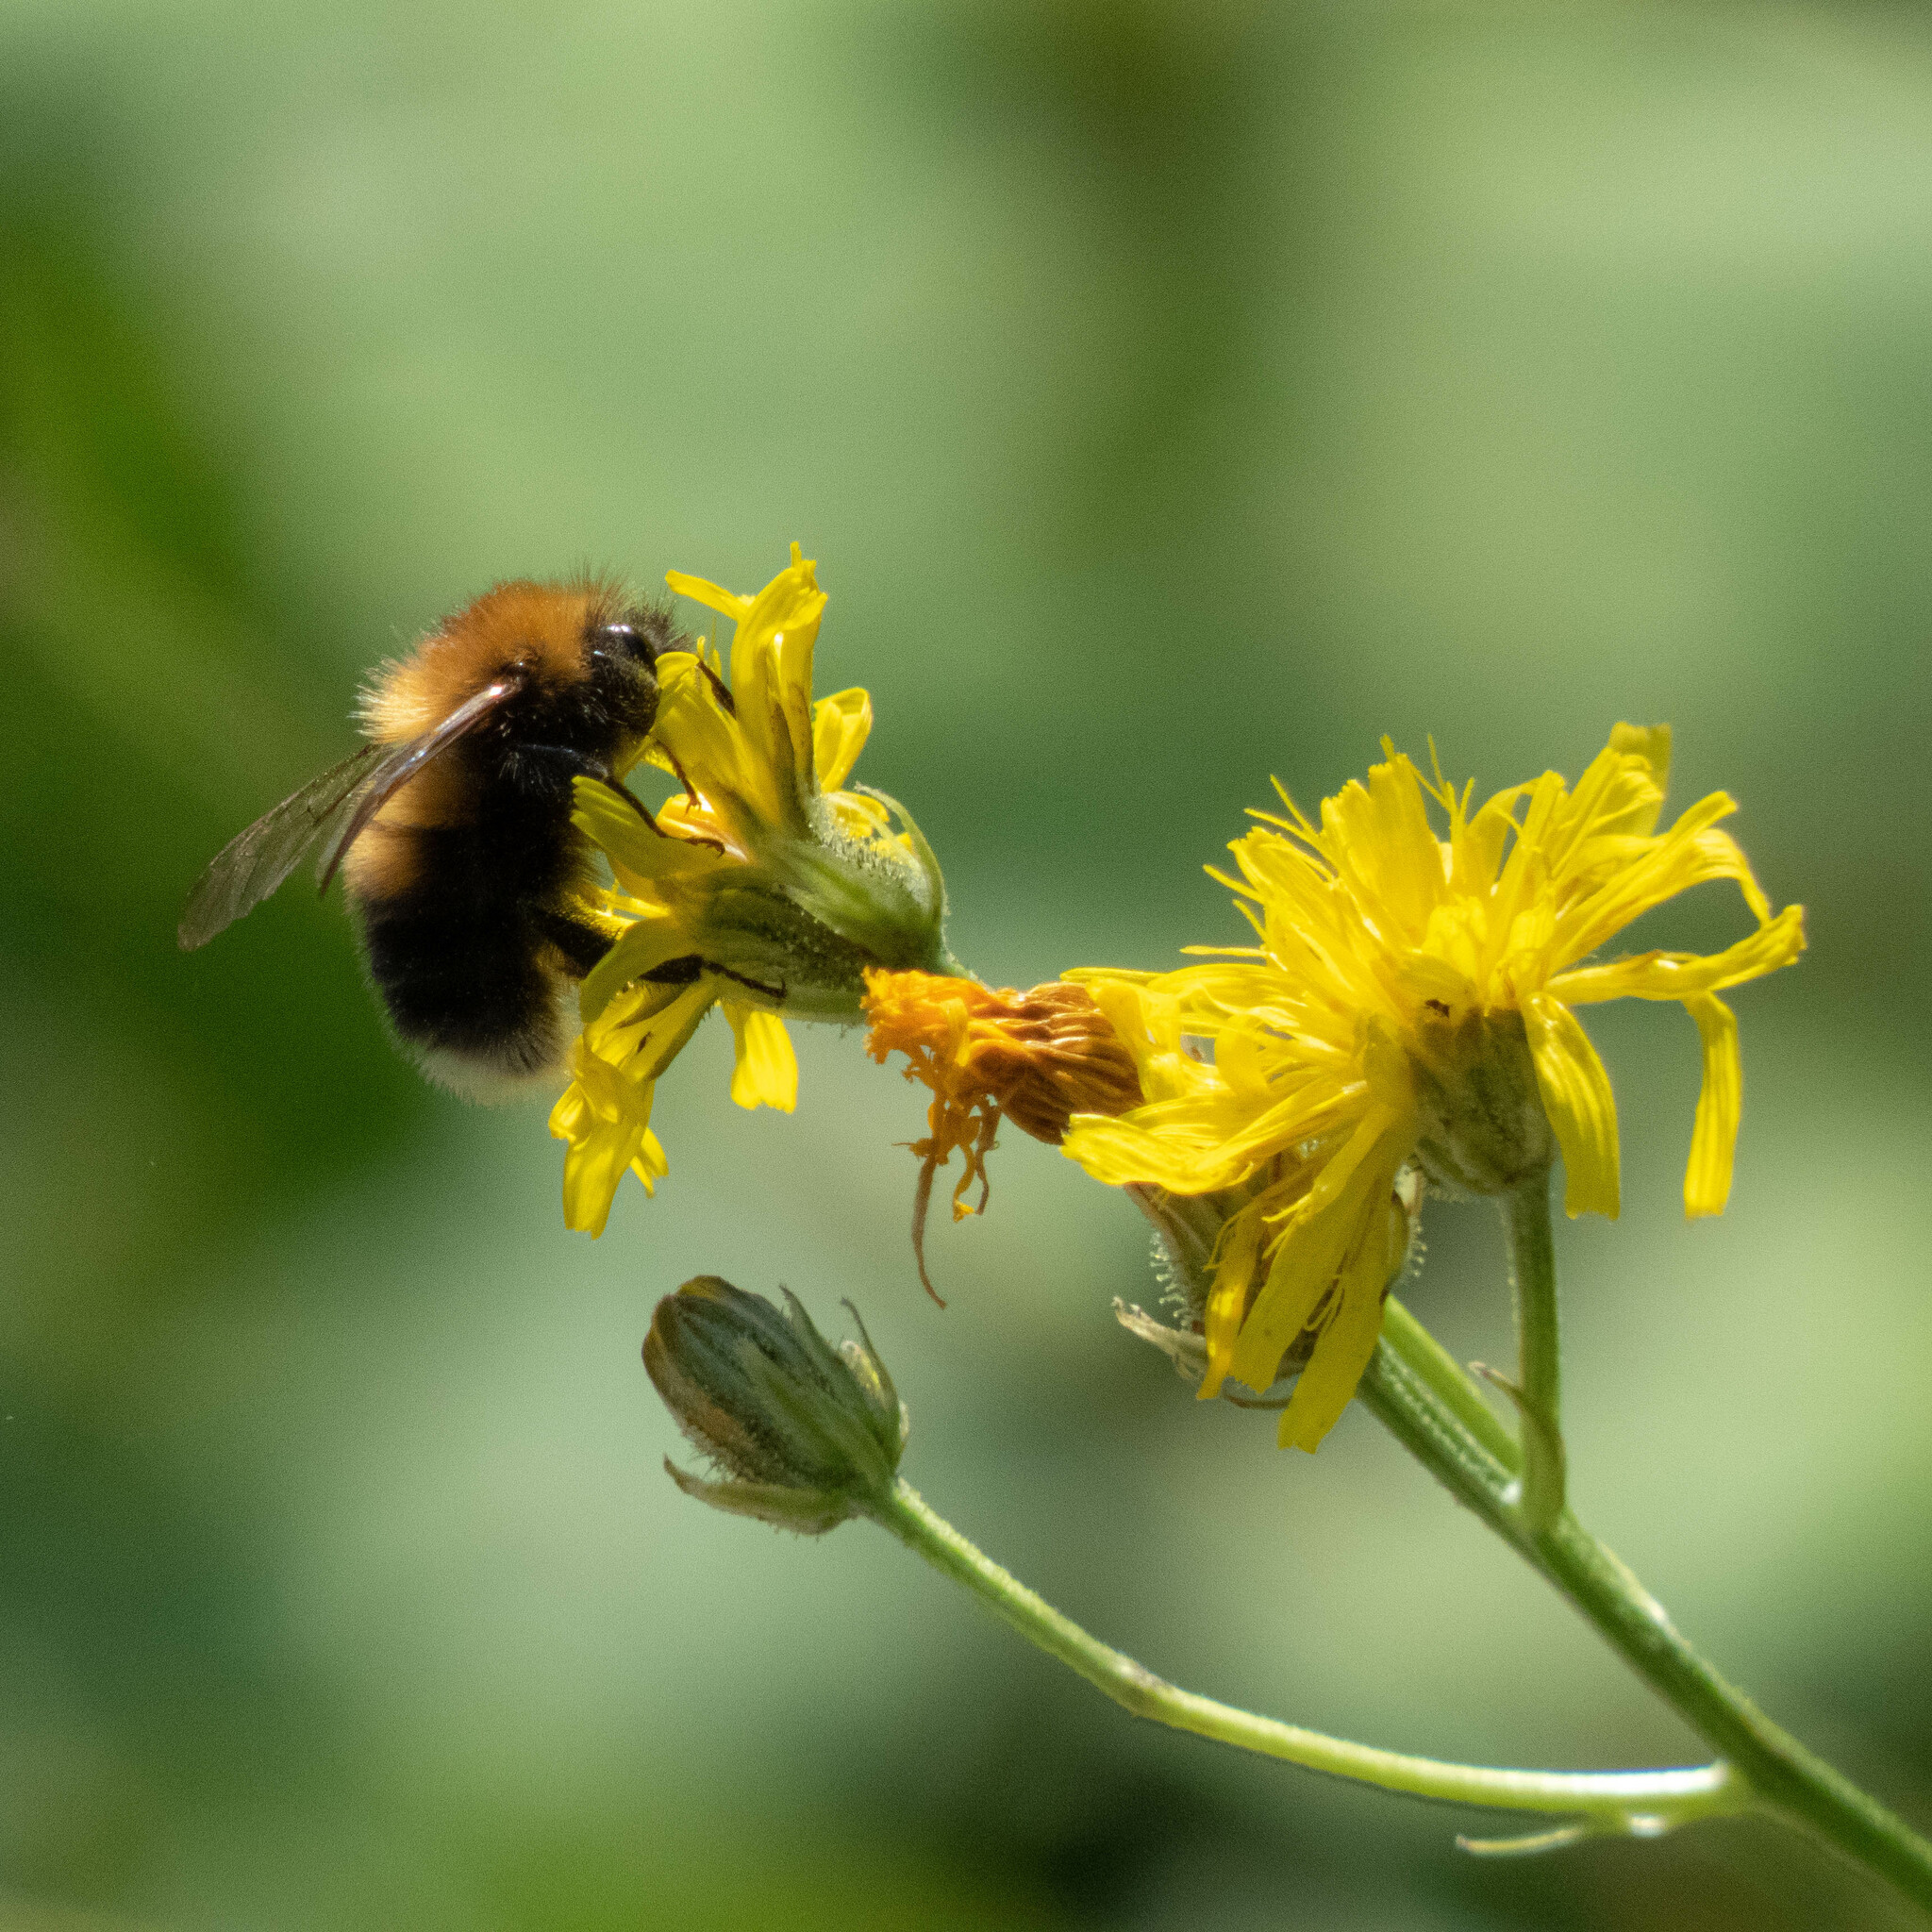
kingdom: Animalia
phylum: Arthropoda
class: Insecta
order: Hymenoptera
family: Apidae
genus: Bombus
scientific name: Bombus hypnorum
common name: New garden bumblebee
